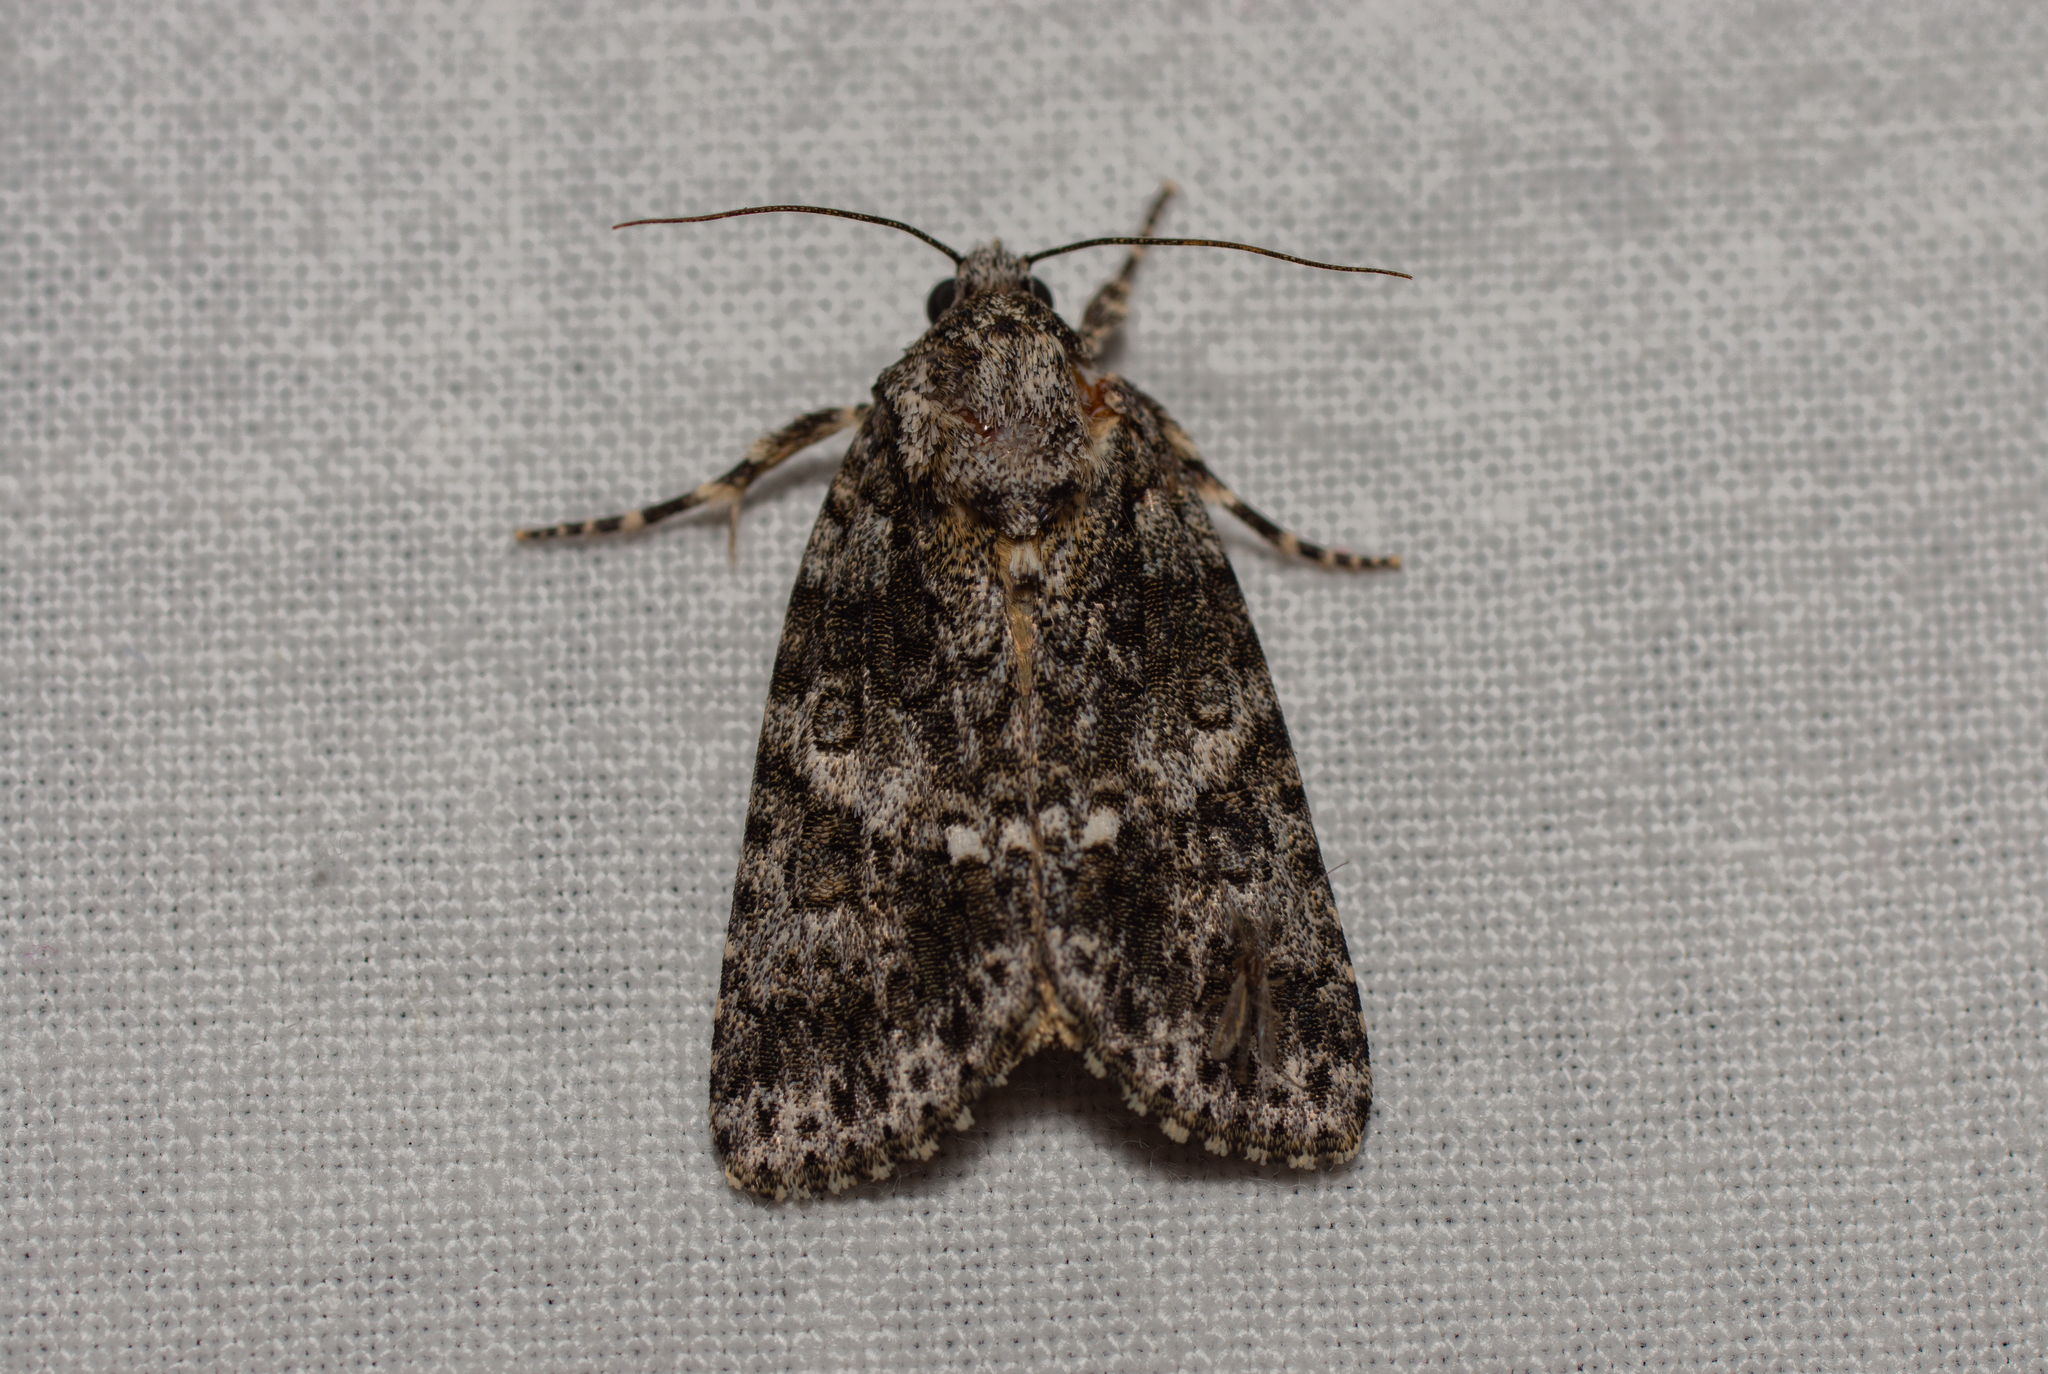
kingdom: Animalia
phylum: Arthropoda
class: Insecta
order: Lepidoptera
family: Noctuidae
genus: Acronicta
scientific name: Acronicta rumicis
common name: Knot grass
